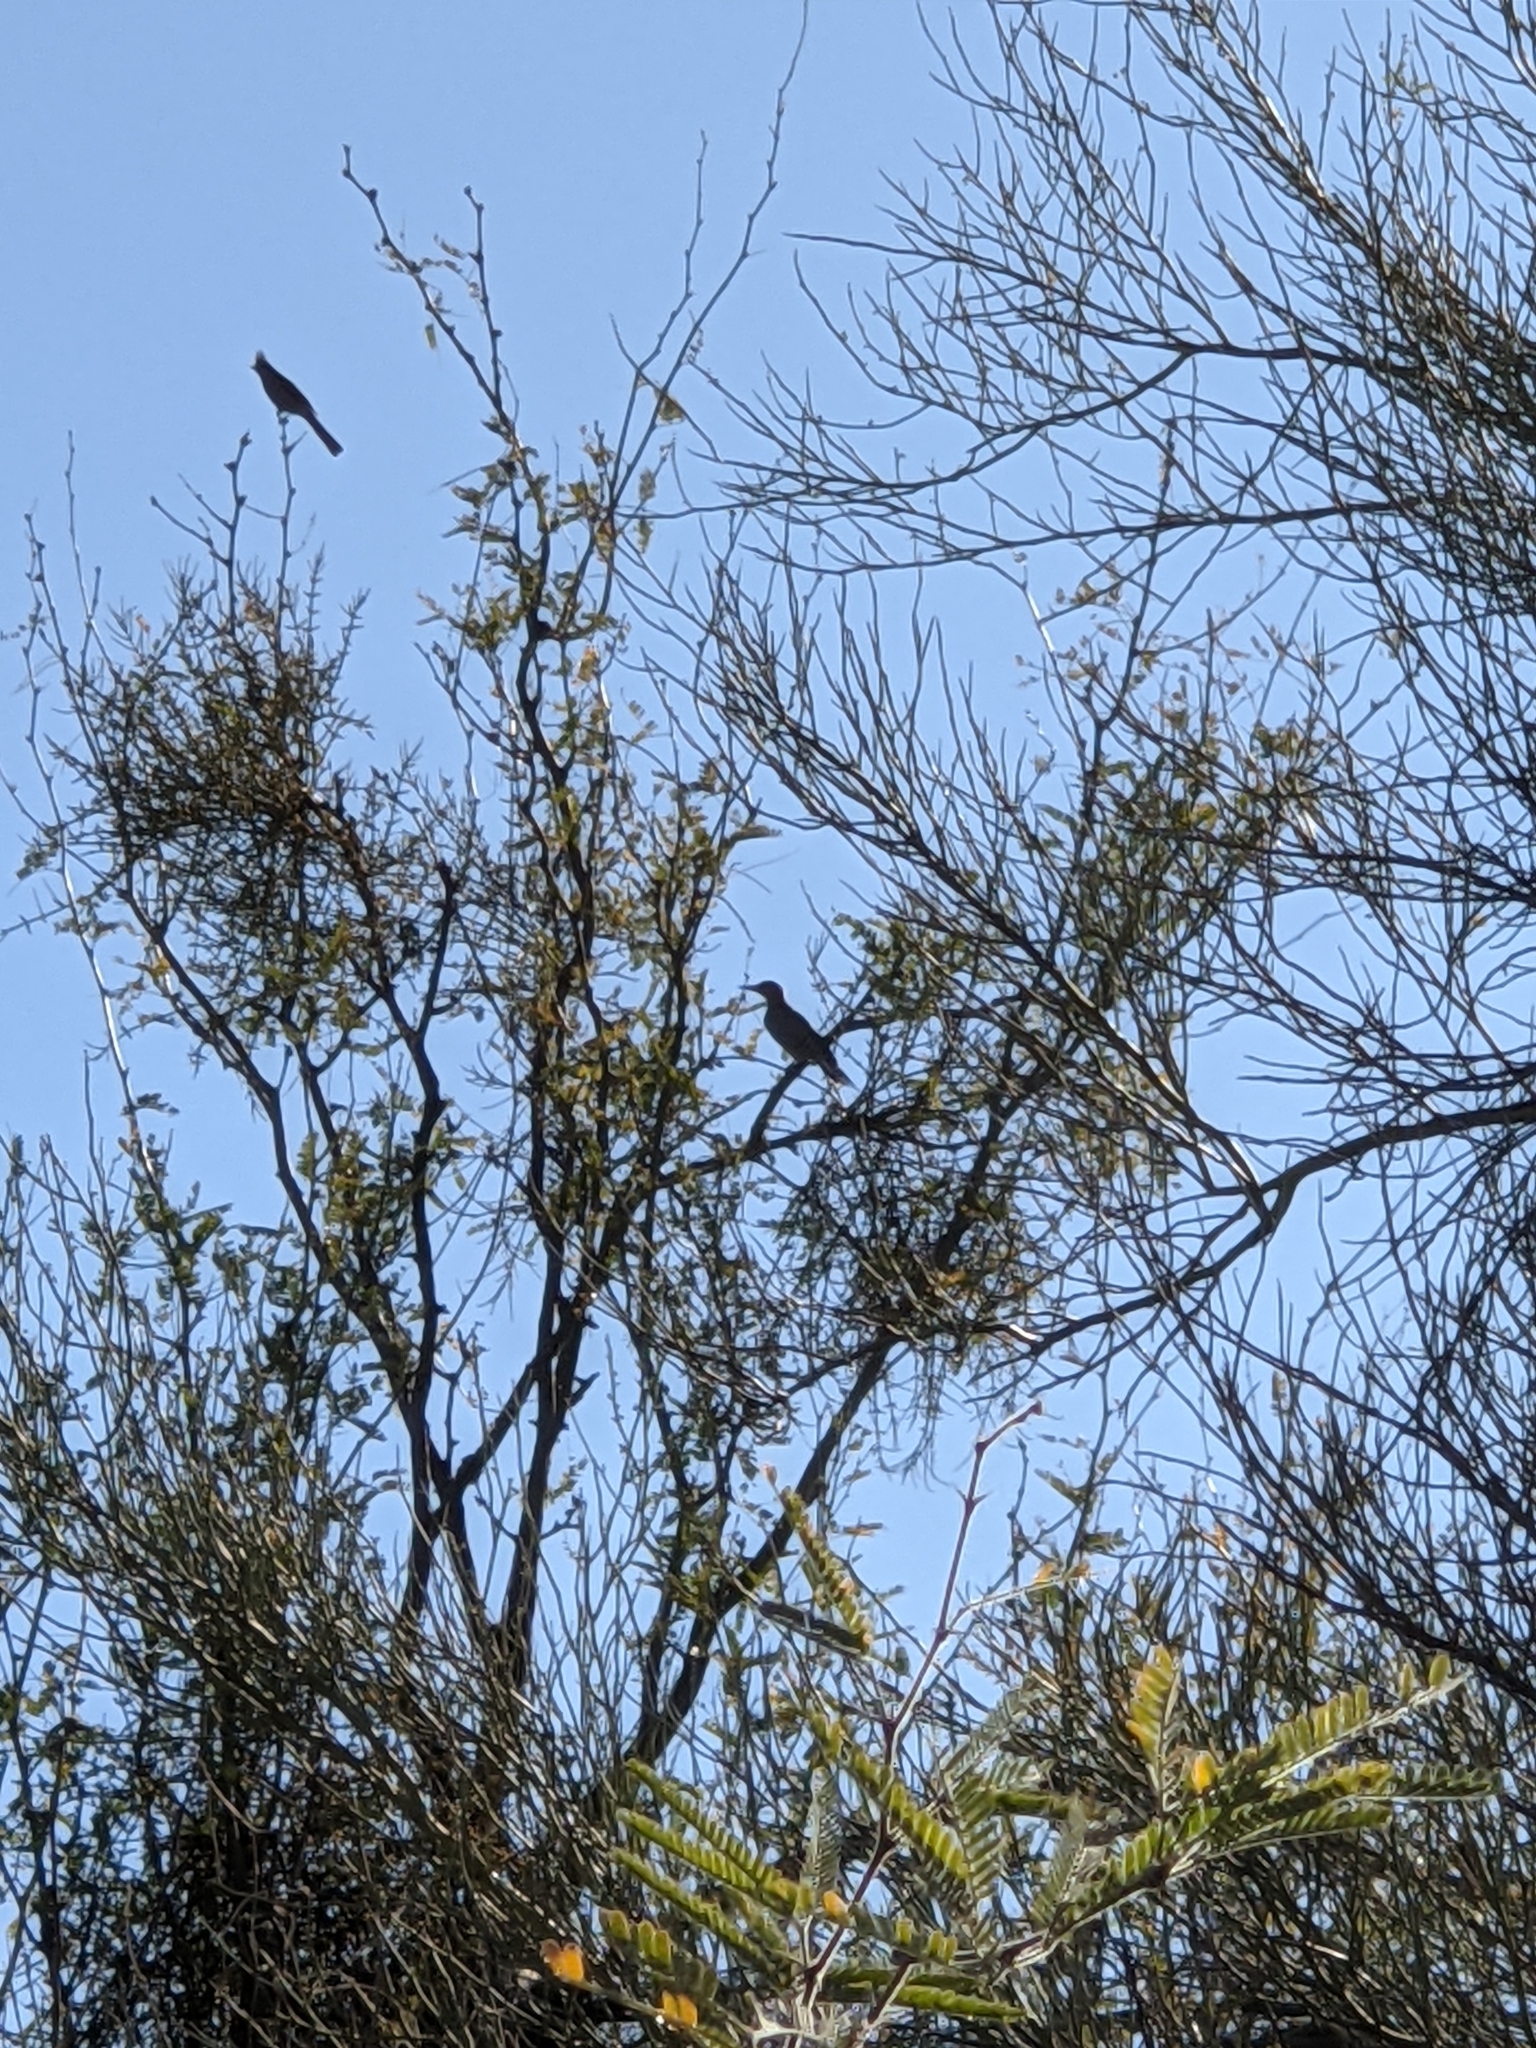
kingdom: Animalia
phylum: Chordata
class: Aves
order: Piciformes
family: Picidae
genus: Melanerpes
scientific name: Melanerpes uropygialis
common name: Gila woodpecker
